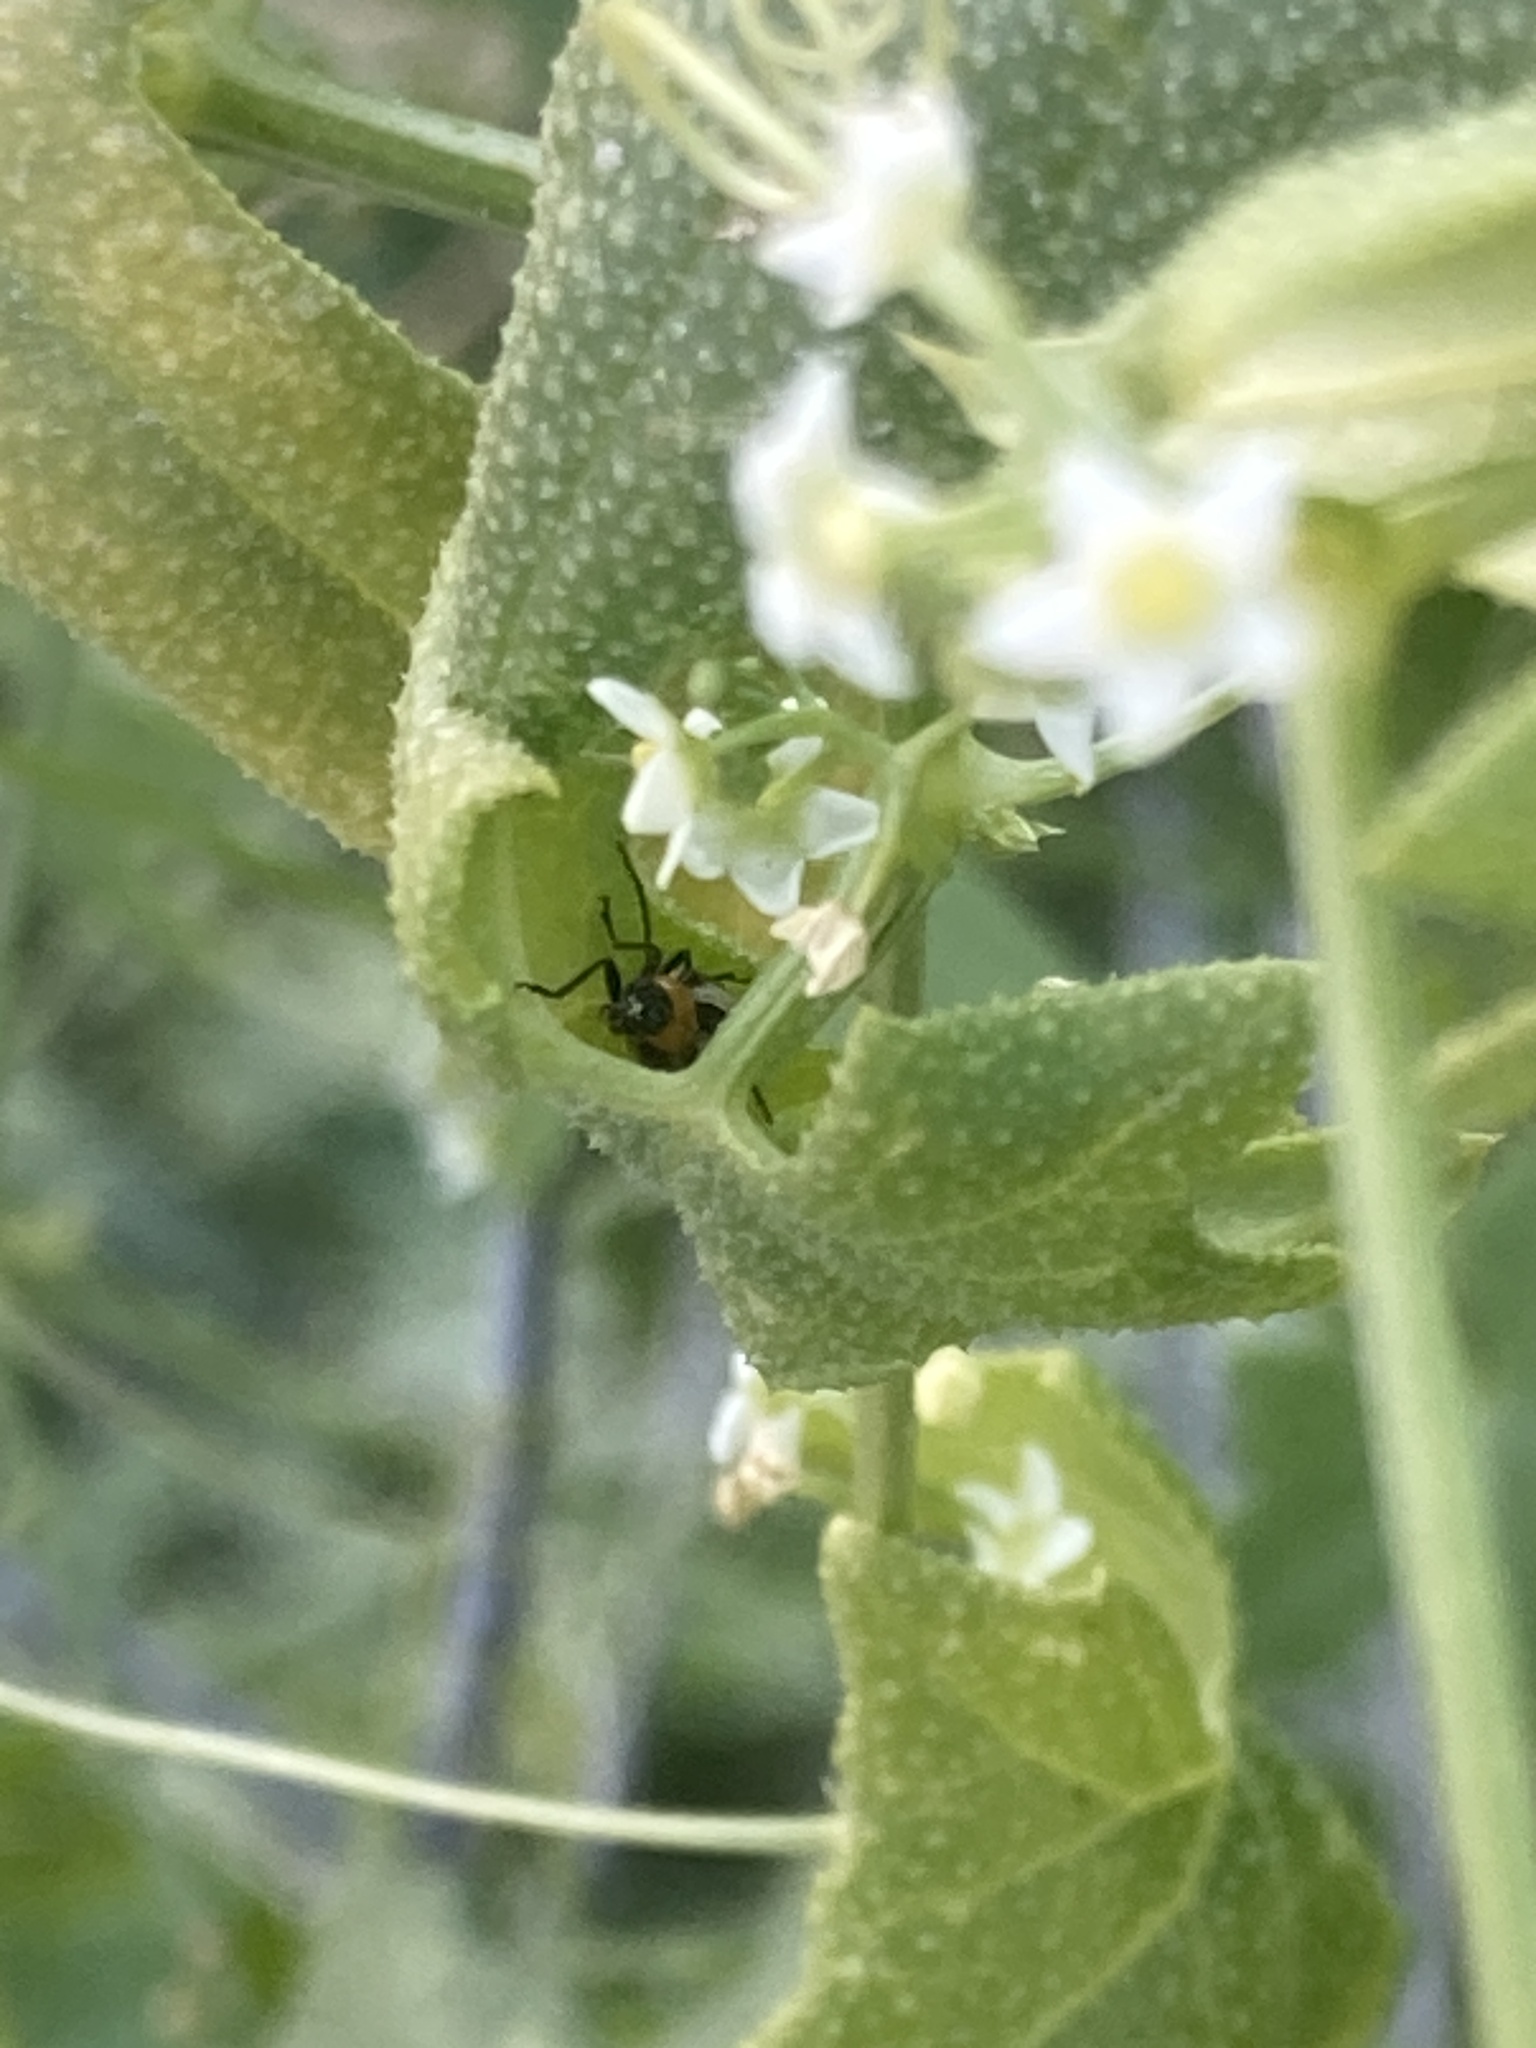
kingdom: Plantae
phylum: Tracheophyta
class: Magnoliopsida
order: Cucurbitales
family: Cucurbitaceae
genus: Echinopepon
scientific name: Echinopepon bigelovii
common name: Desert starvine
